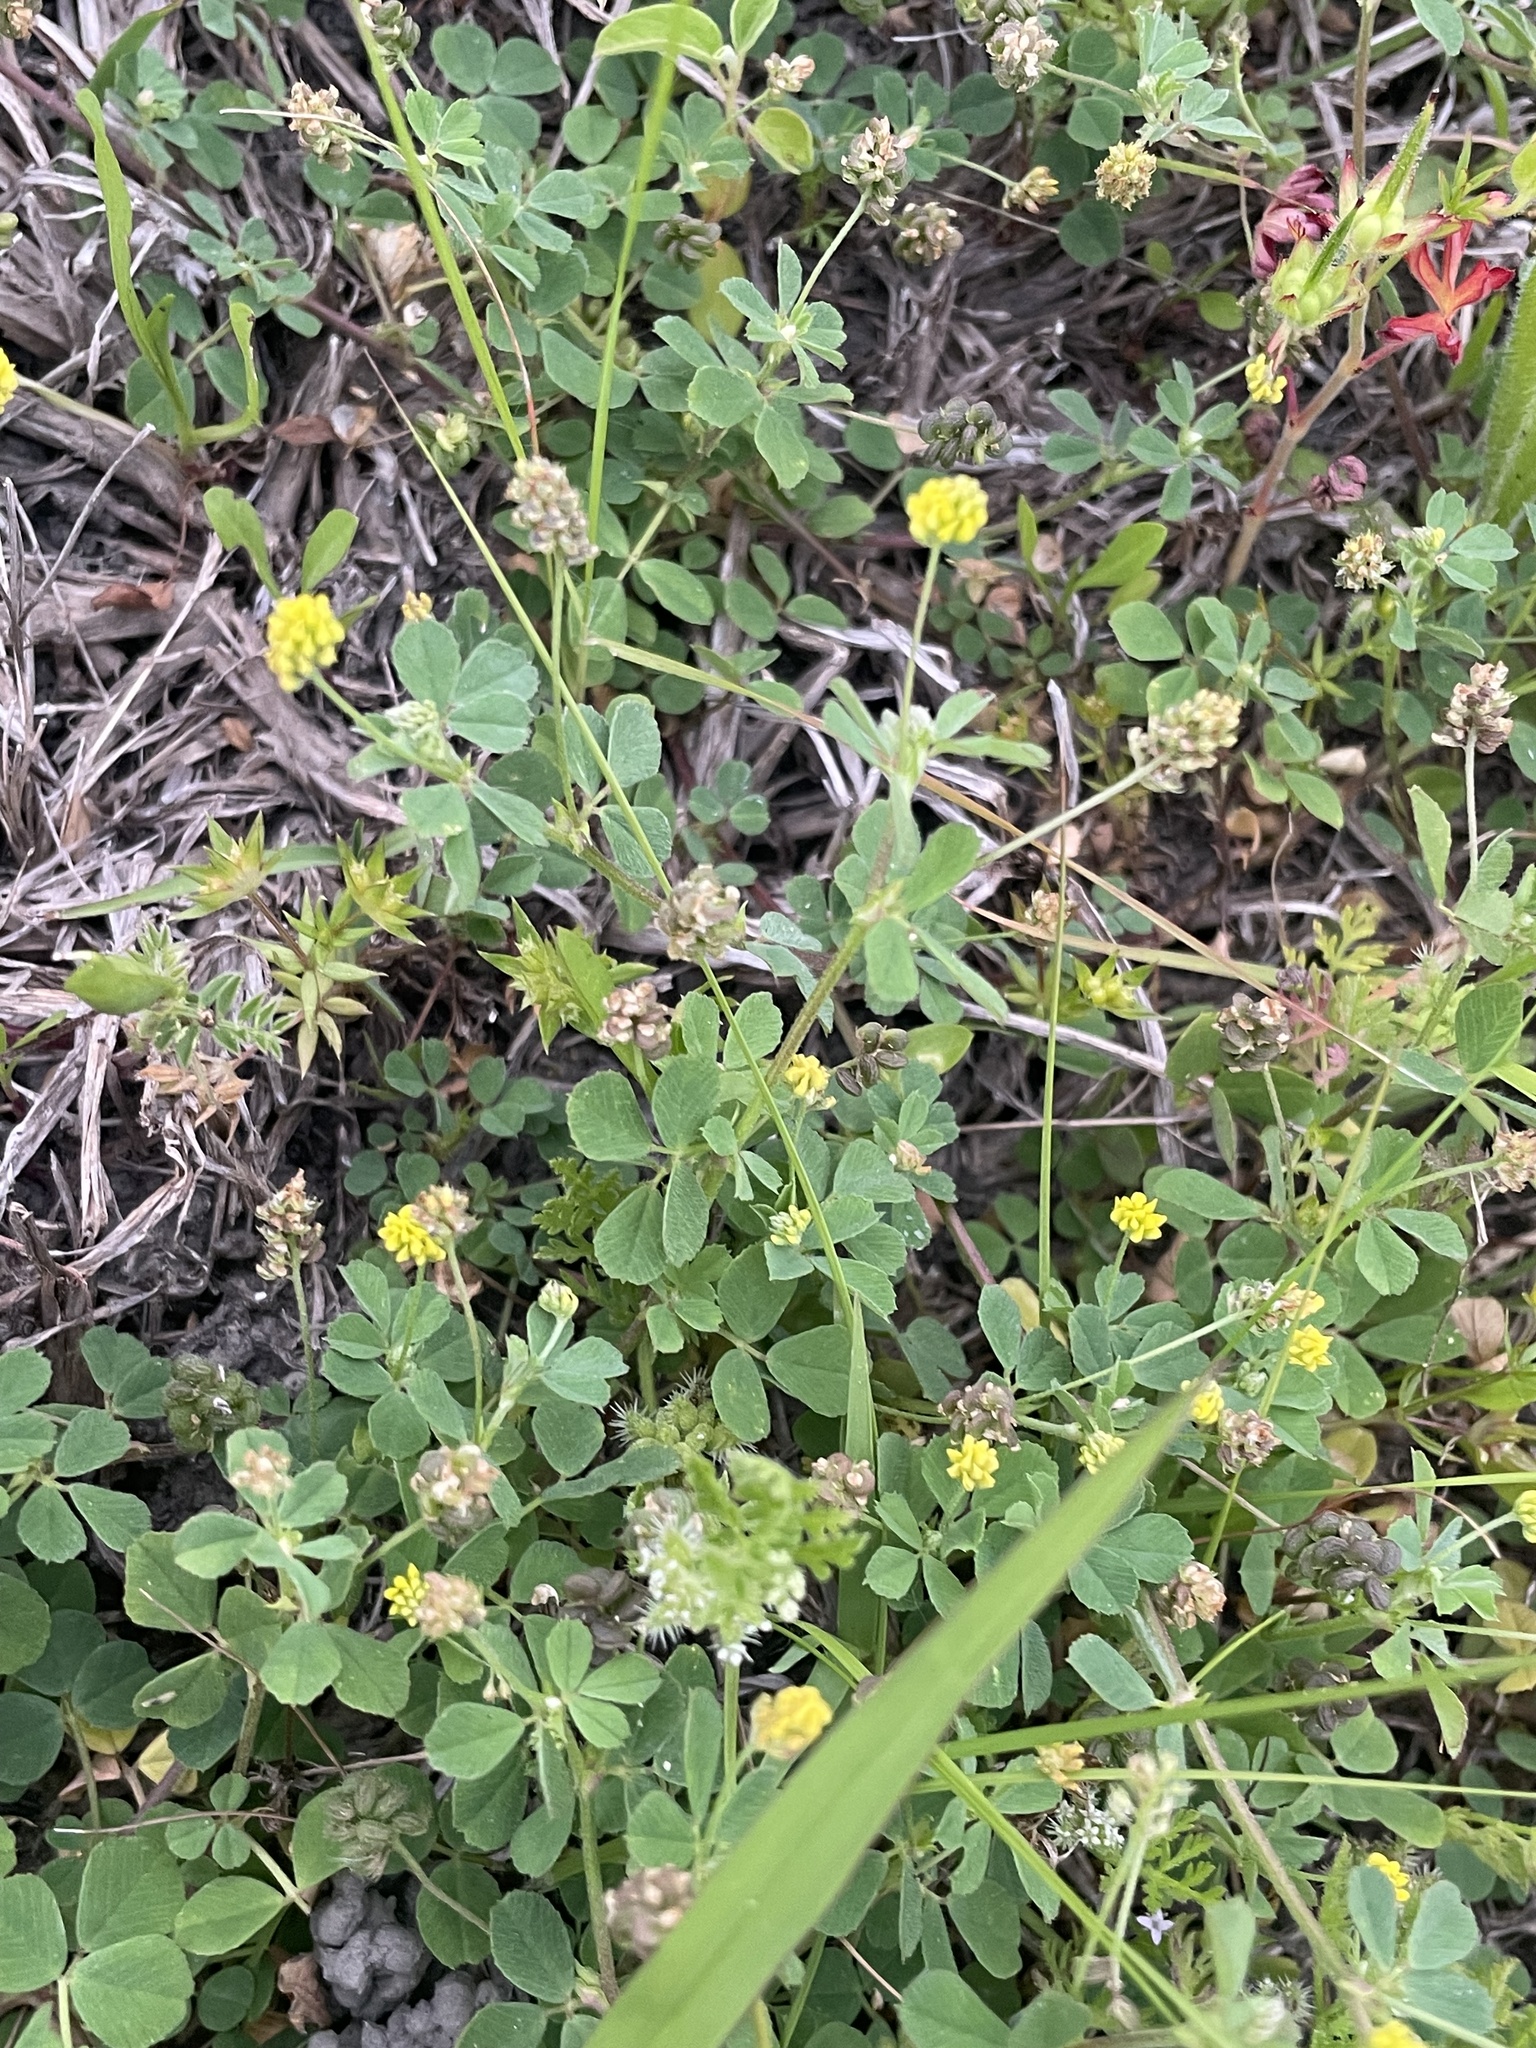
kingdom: Plantae
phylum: Tracheophyta
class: Magnoliopsida
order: Fabales
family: Fabaceae
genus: Medicago
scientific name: Medicago lupulina
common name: Black medick
